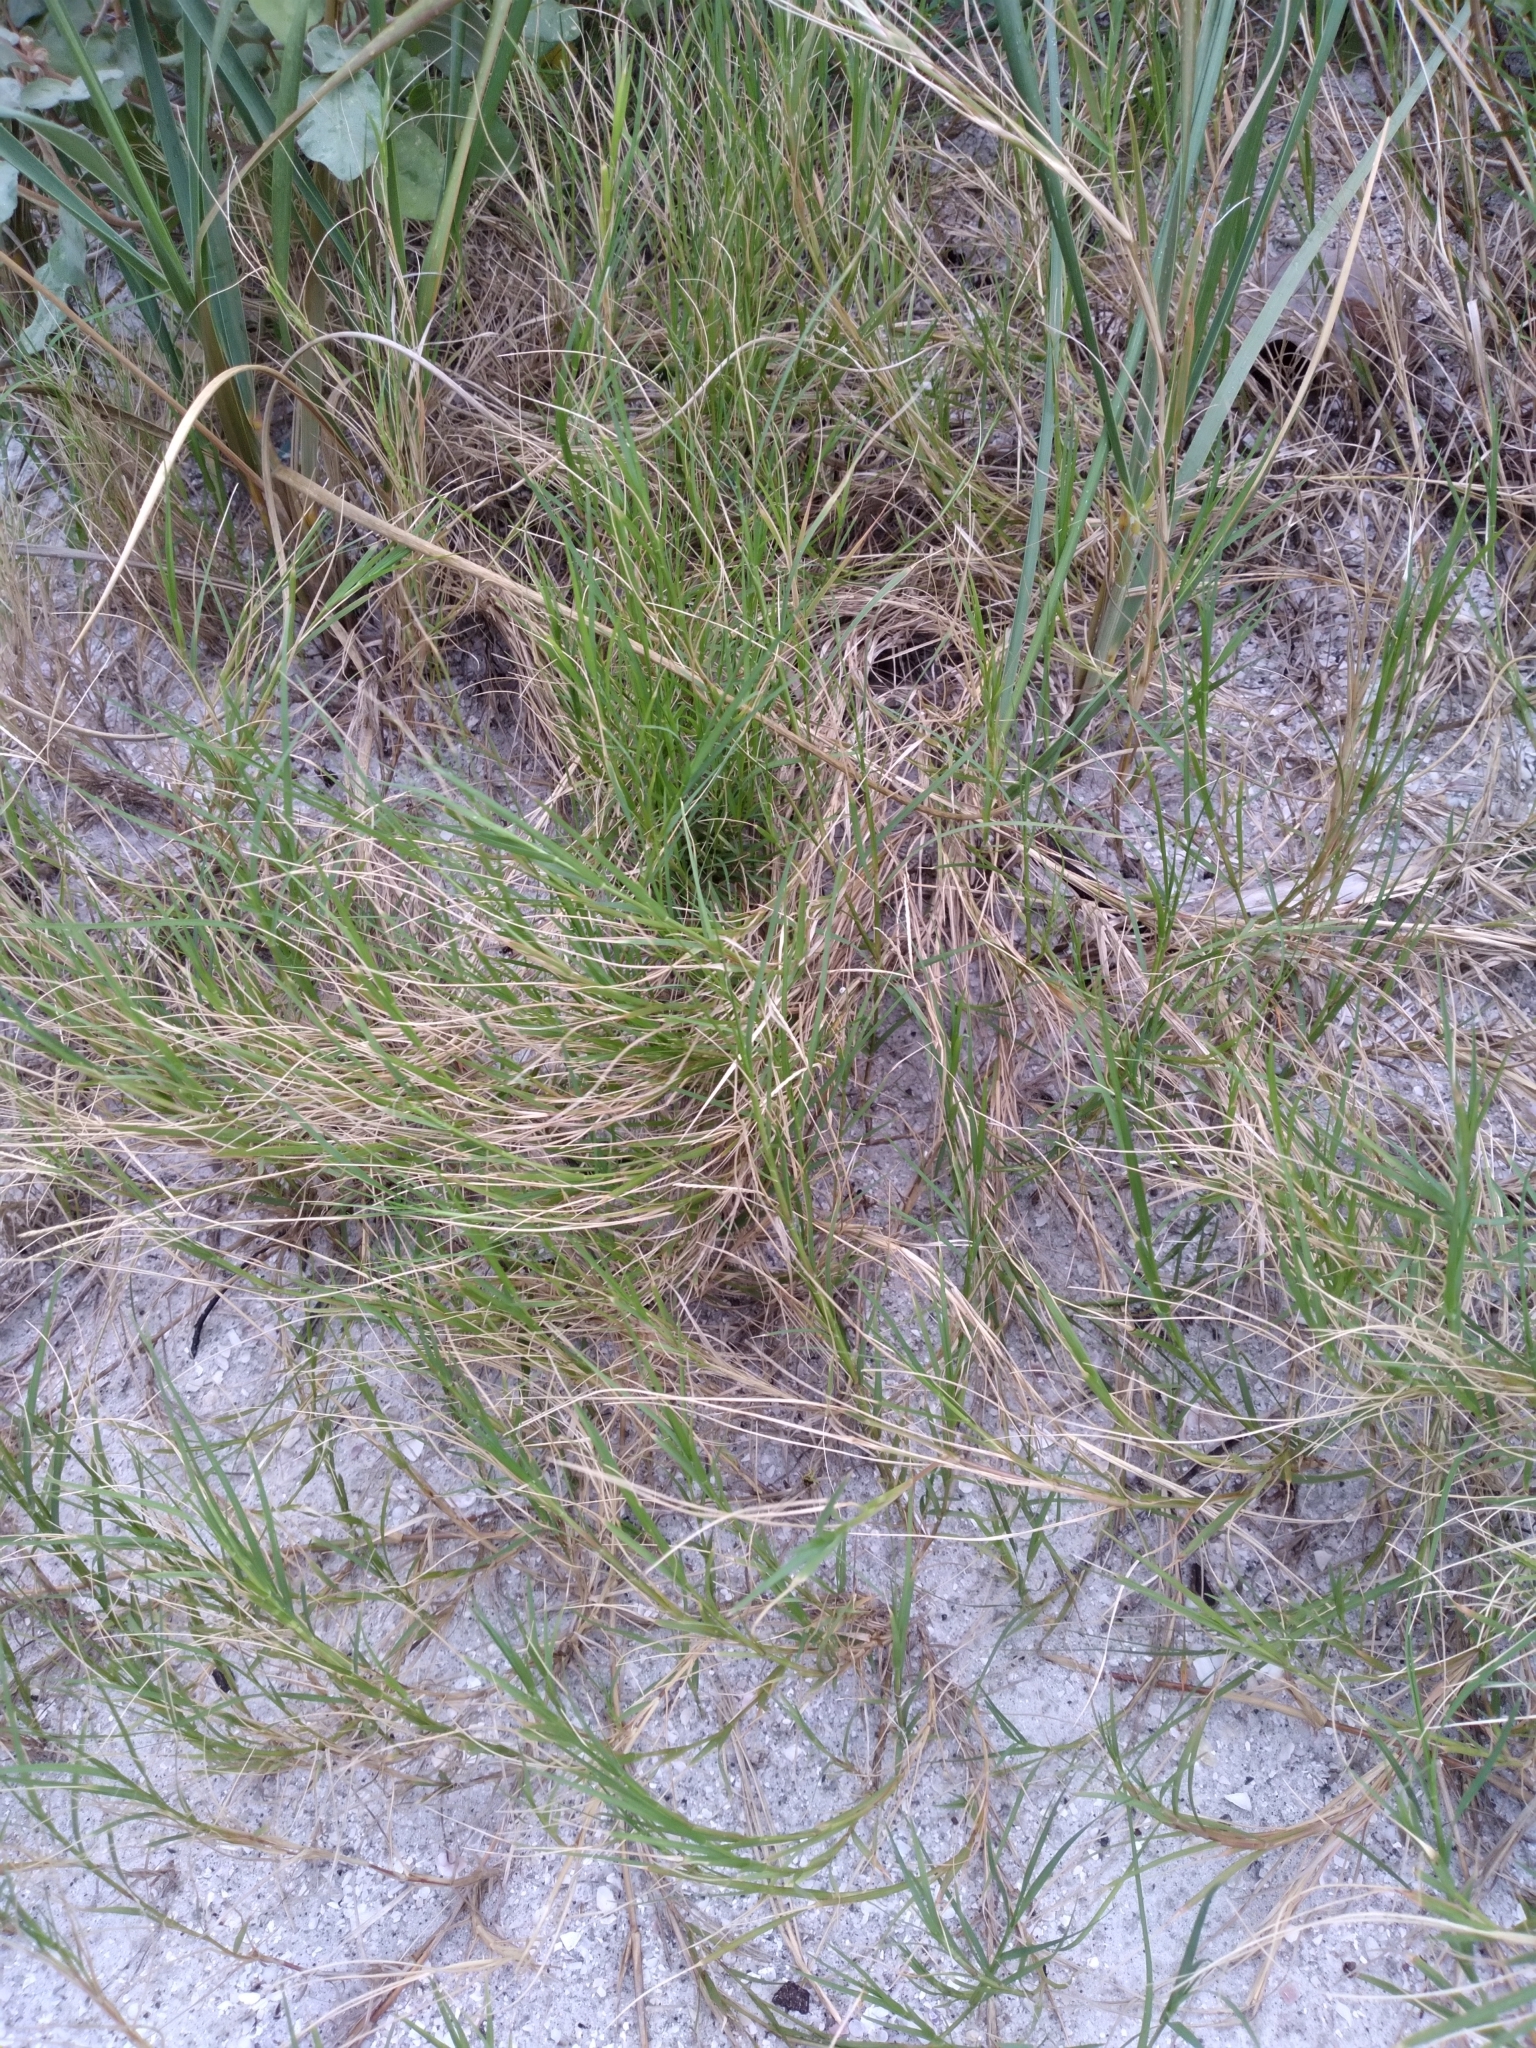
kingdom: Plantae
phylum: Tracheophyta
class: Liliopsida
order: Poales
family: Poaceae
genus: Sporobolus
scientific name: Sporobolus virginicus
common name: Beach dropseed
